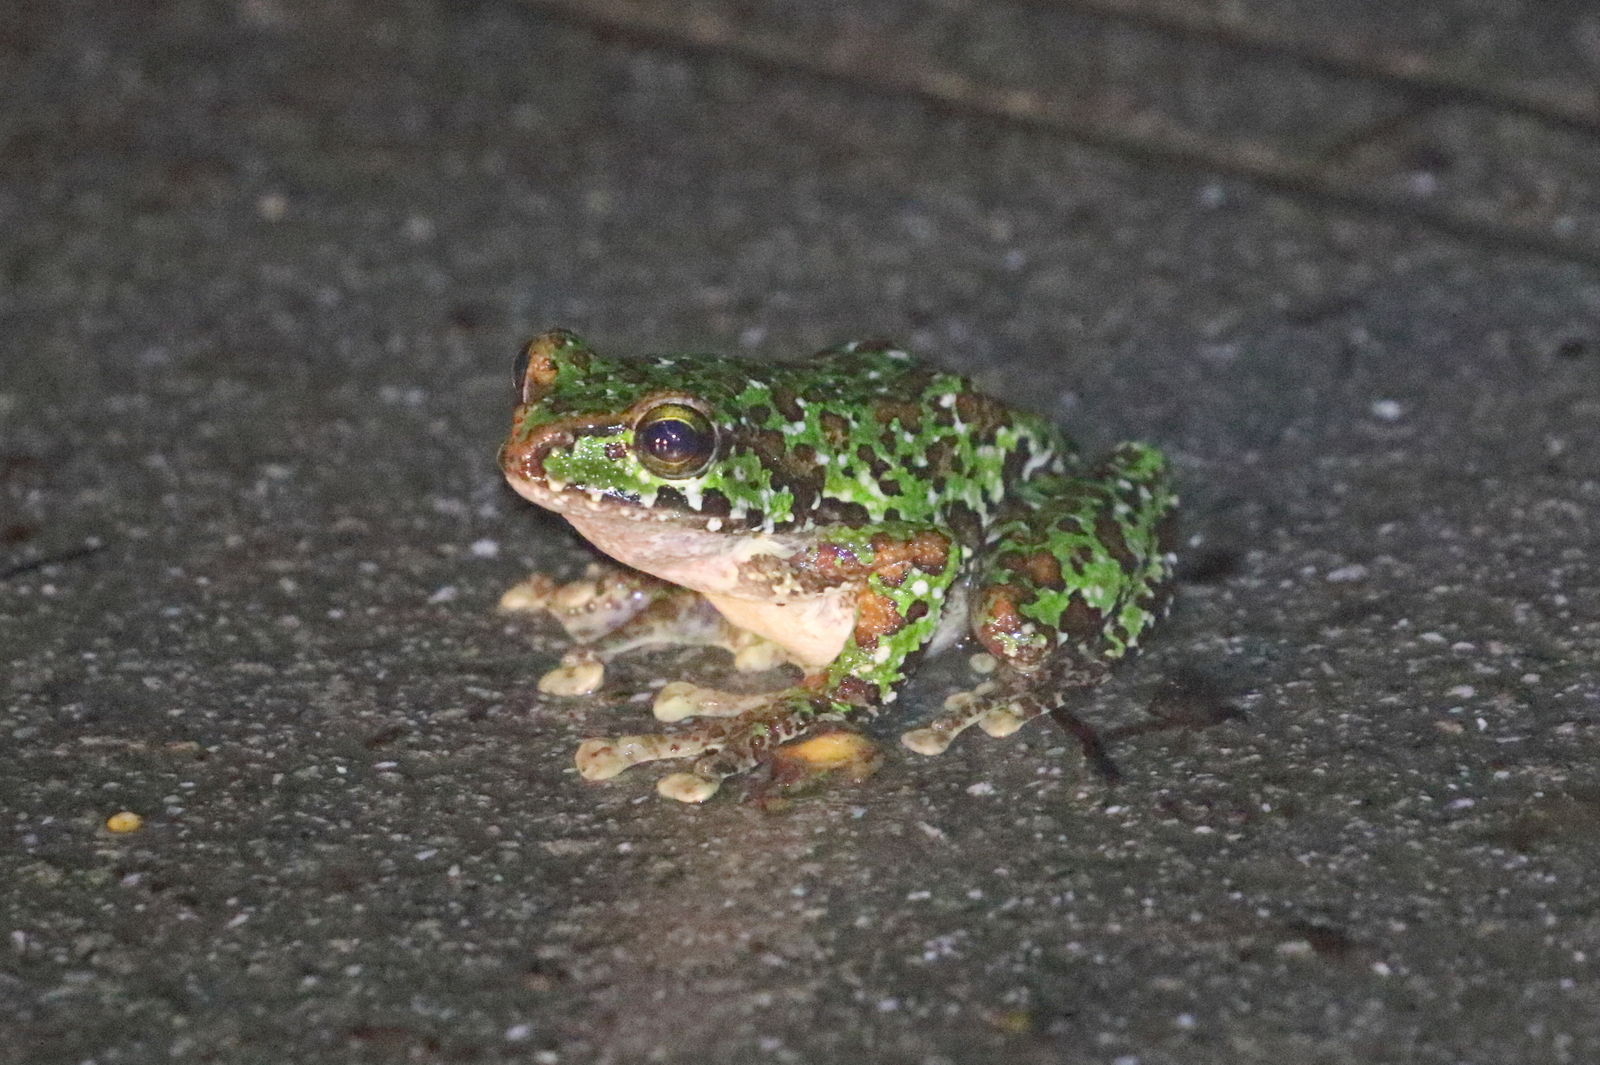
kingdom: Animalia
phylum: Chordata
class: Amphibia
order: Anura
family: Rhacophoridae
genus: Zhangixalus
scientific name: Zhangixalus duboisi
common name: Dubois' whipping frog
